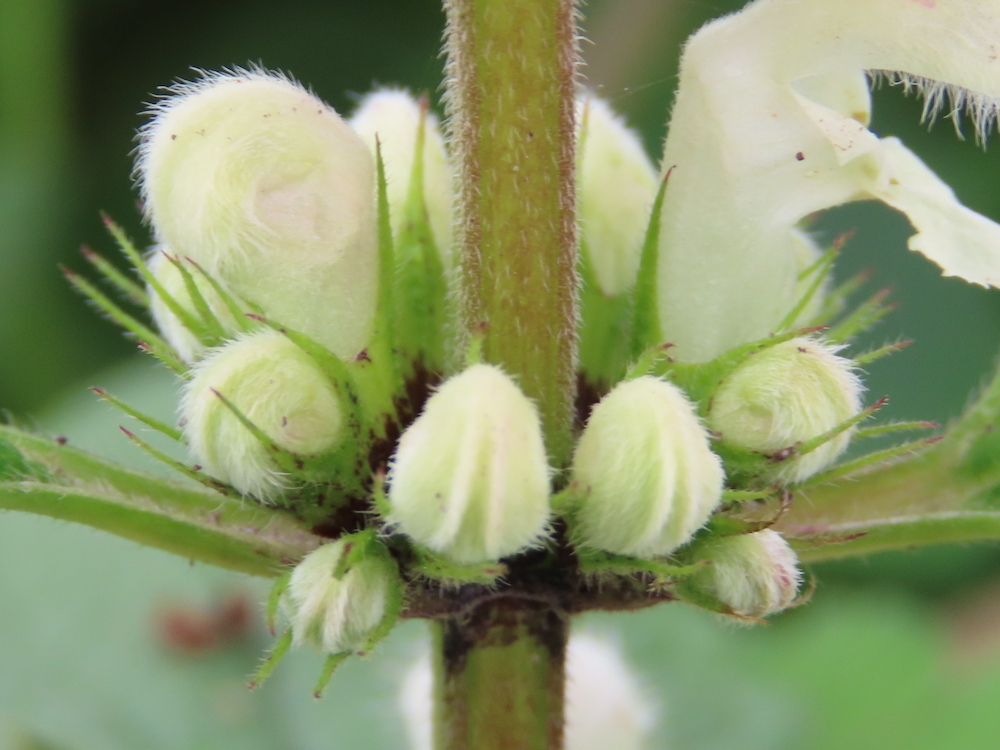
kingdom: Plantae
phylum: Tracheophyta
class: Magnoliopsida
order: Lamiales
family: Lamiaceae
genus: Lamium
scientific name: Lamium album
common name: White dead-nettle
